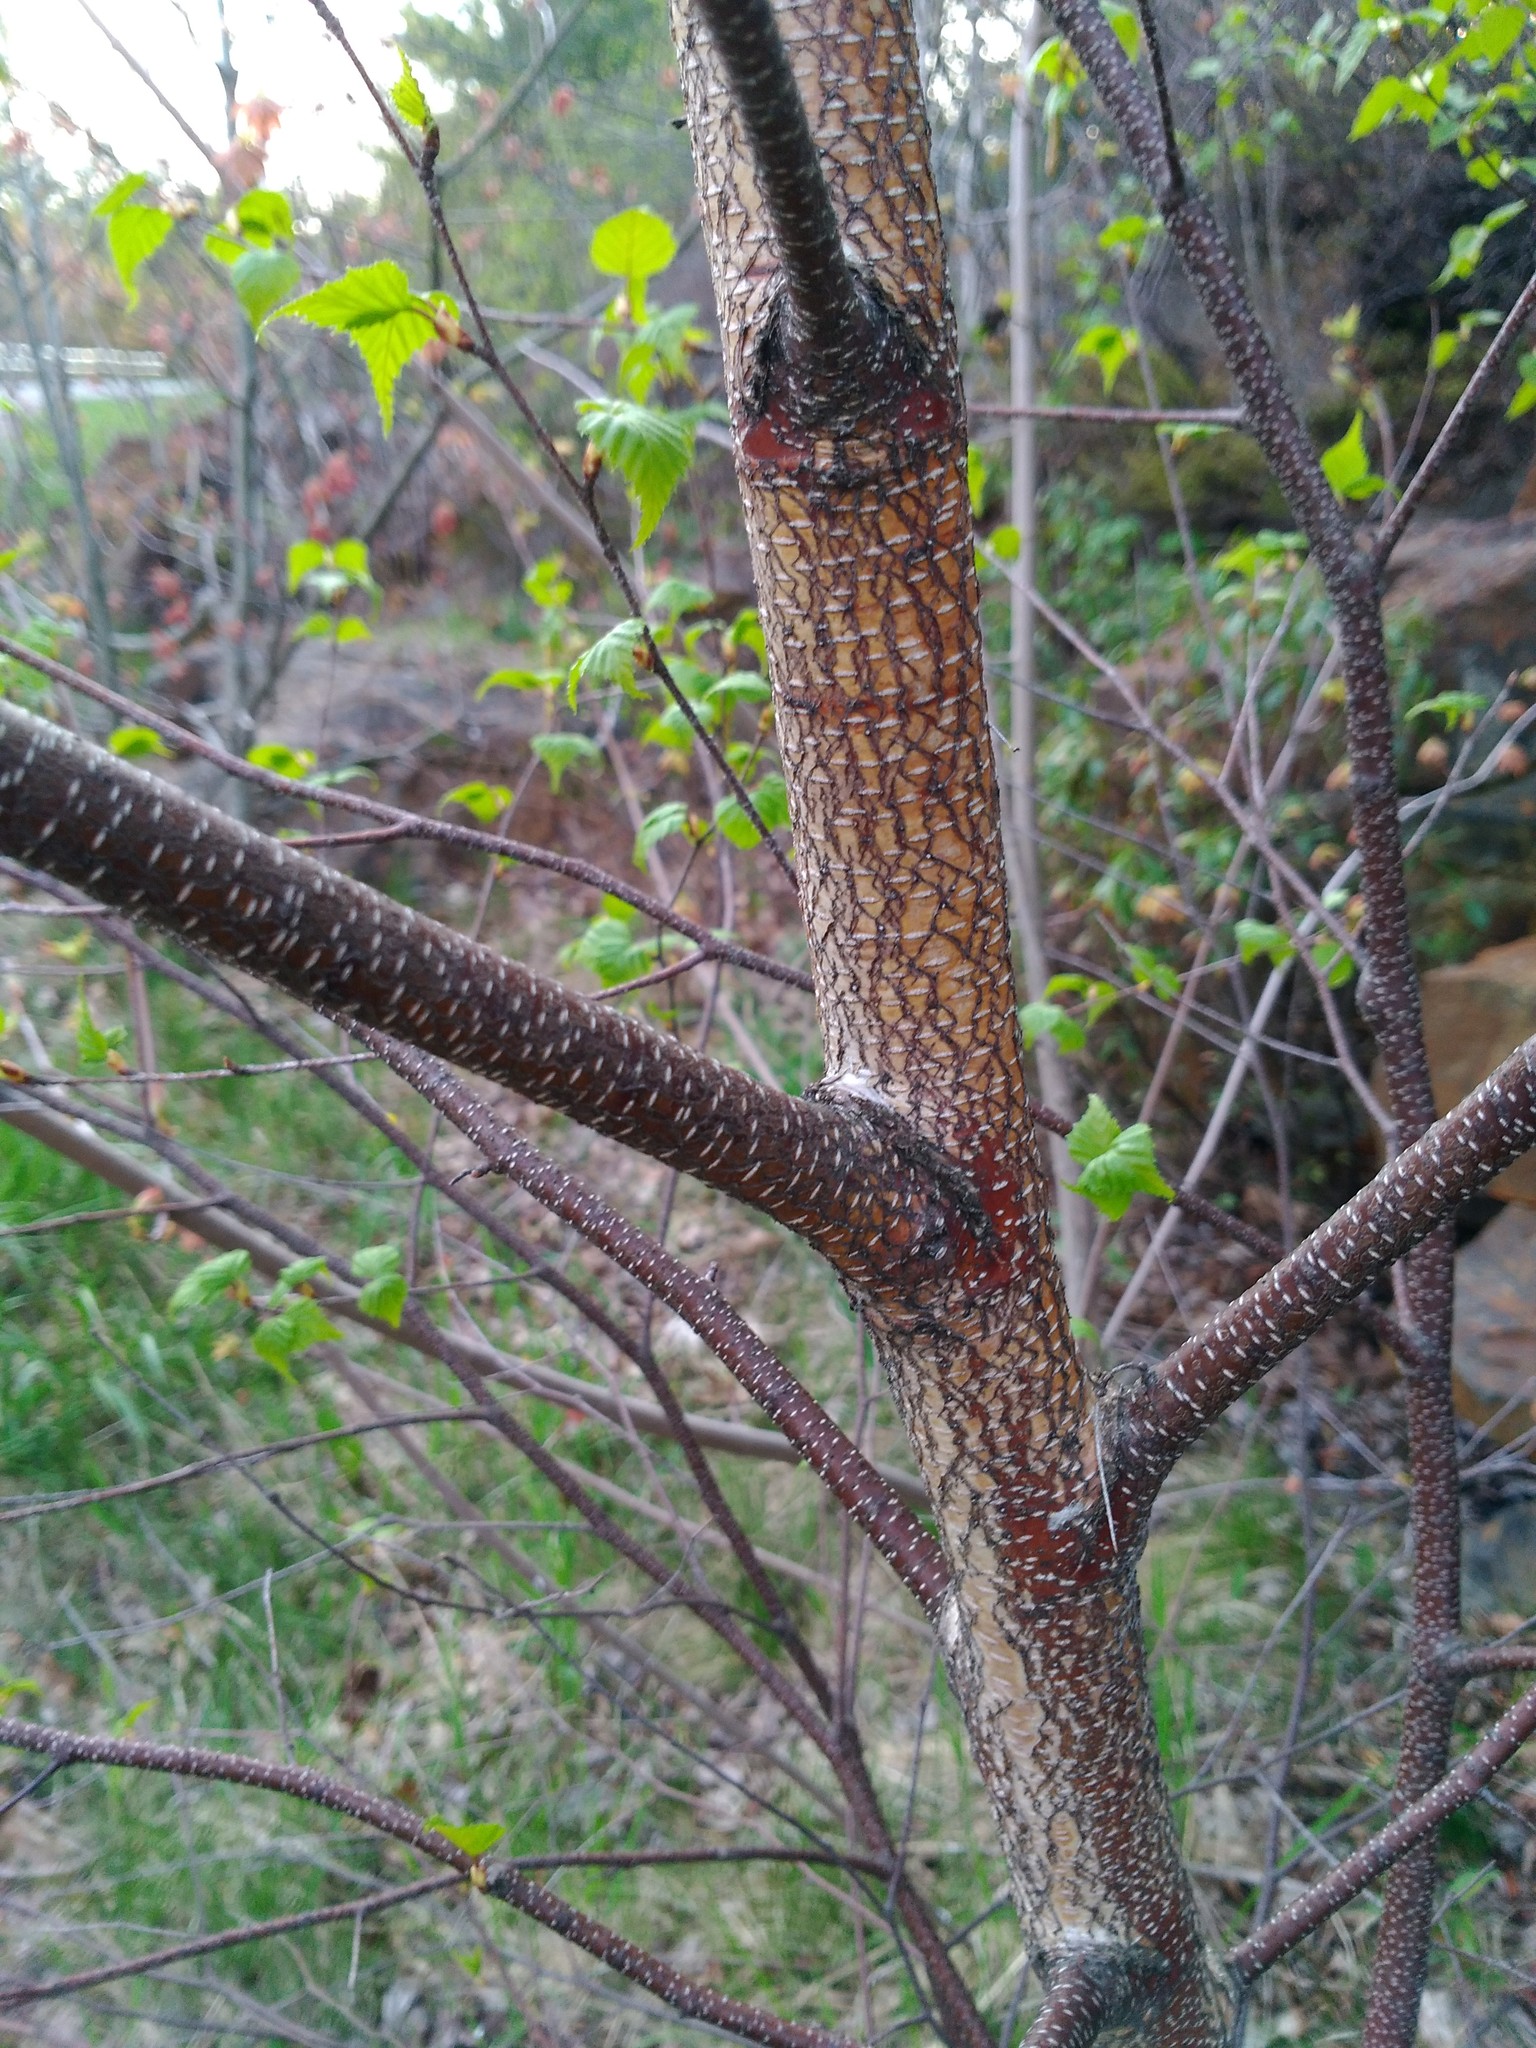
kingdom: Plantae
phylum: Tracheophyta
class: Magnoliopsida
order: Fagales
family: Betulaceae
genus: Betula
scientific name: Betula populifolia
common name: Fire birch
